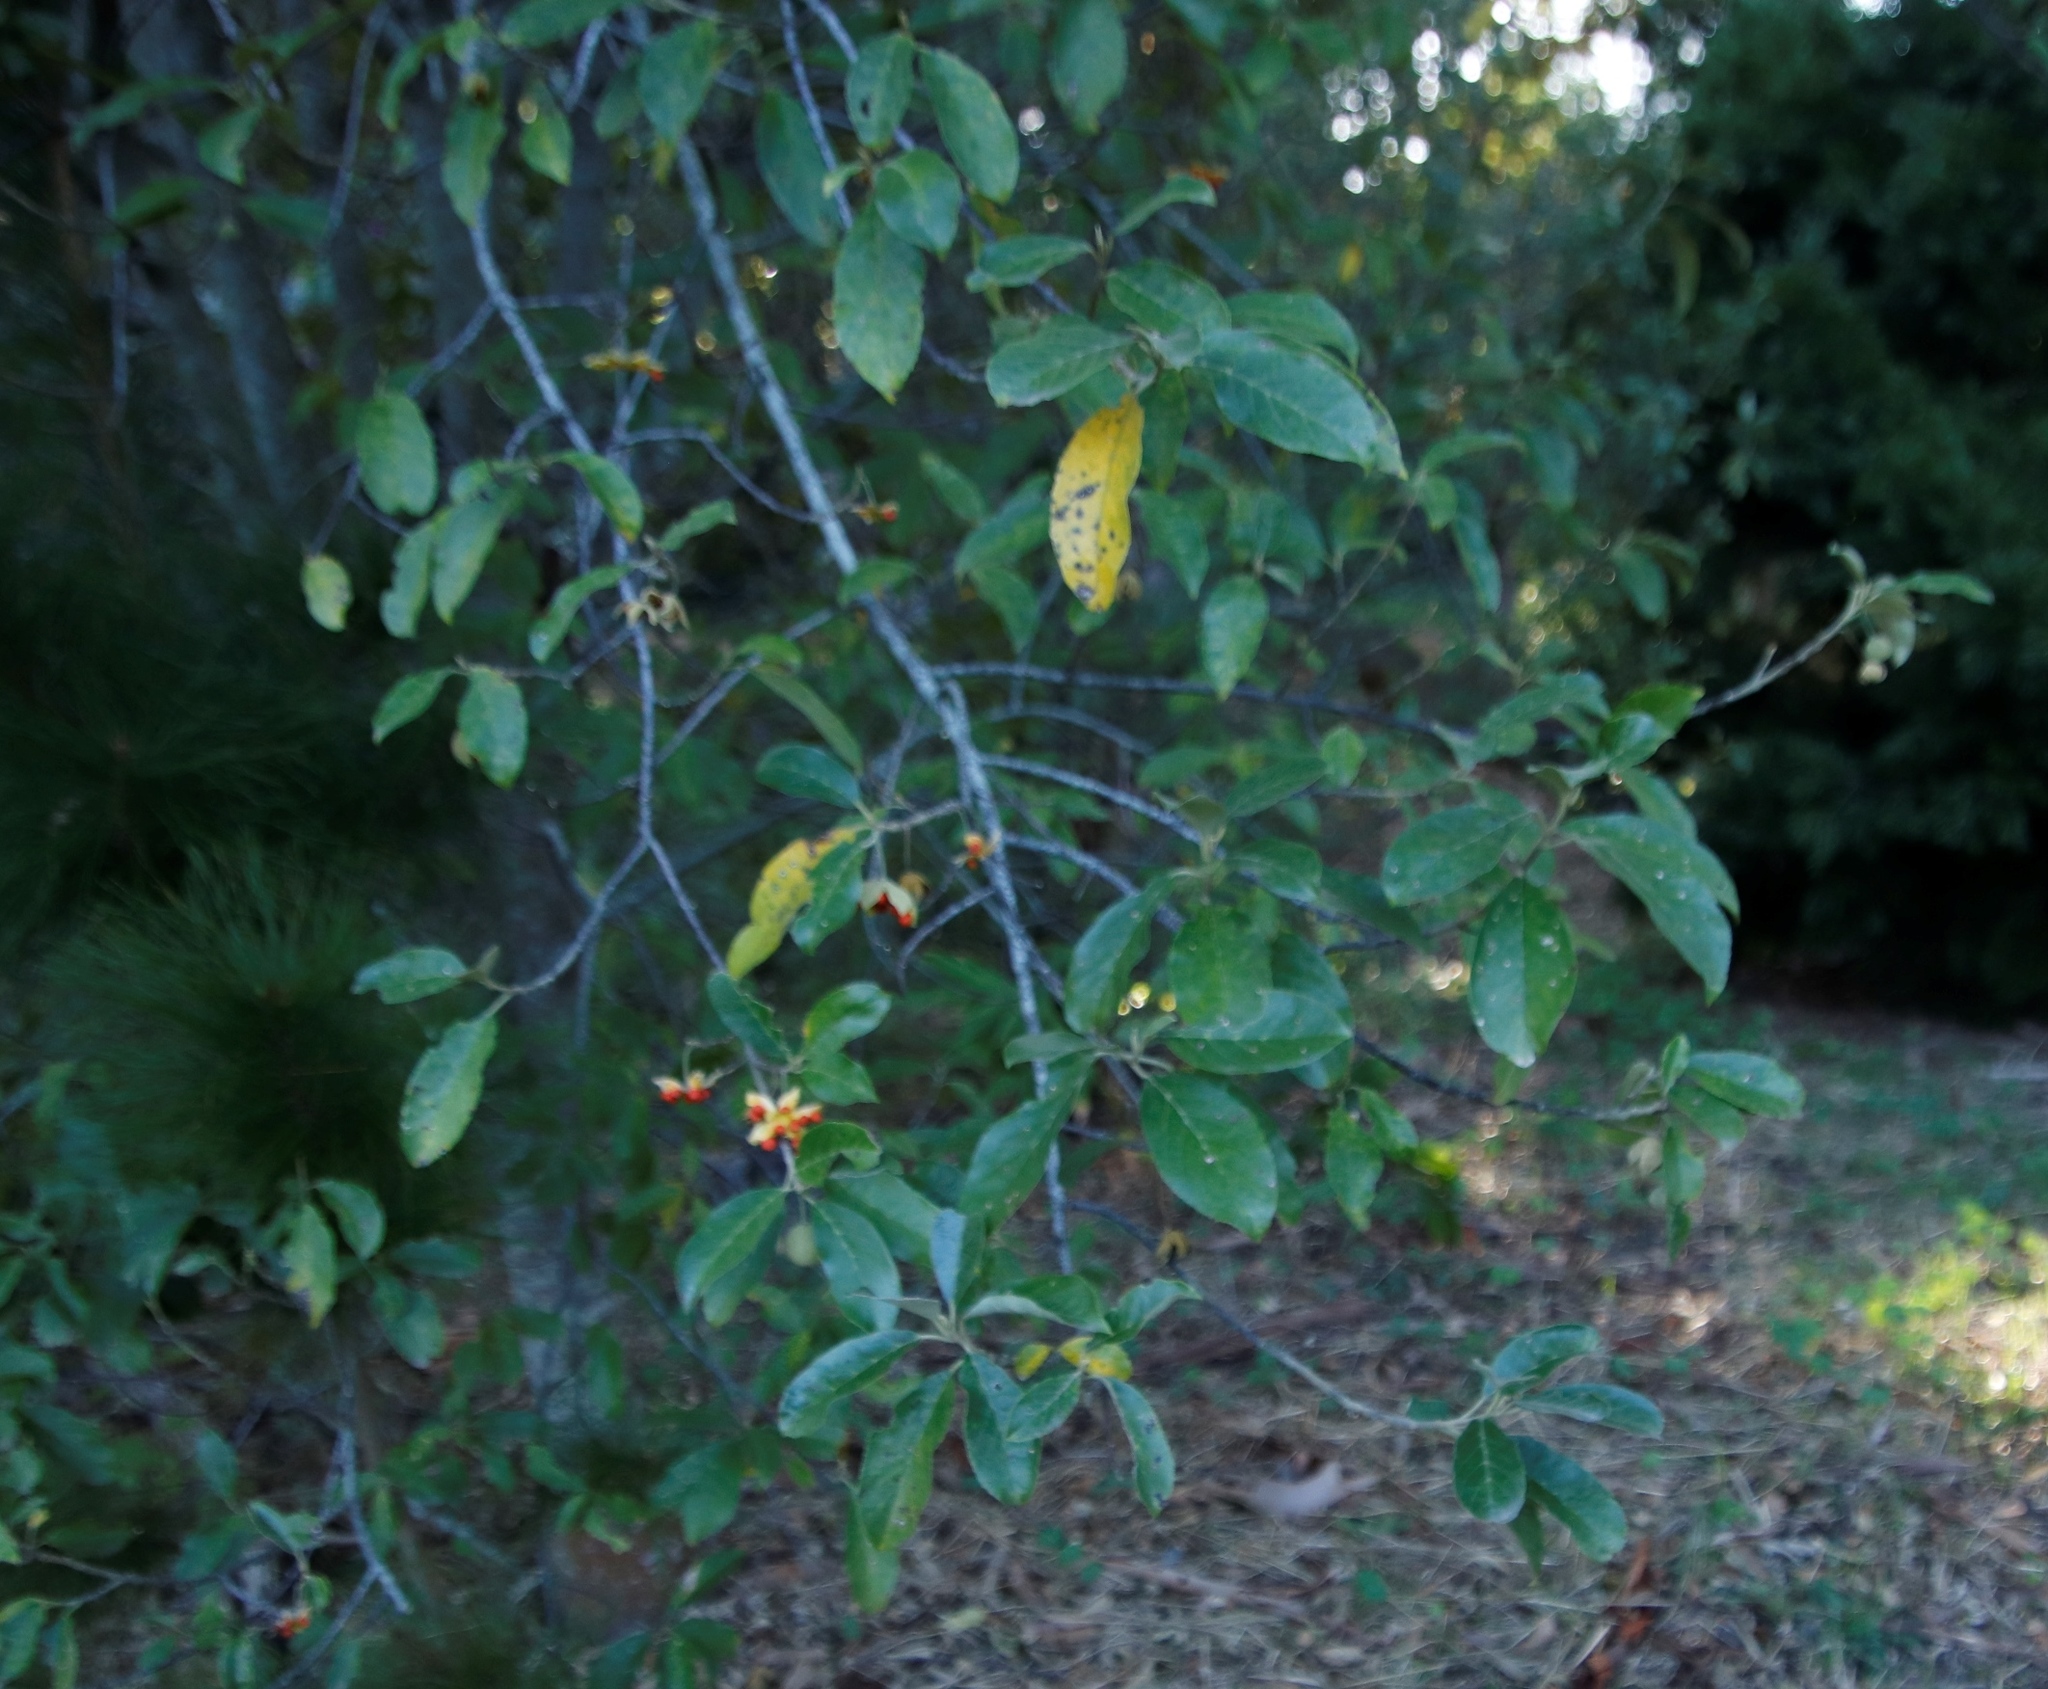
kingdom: Plantae
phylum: Tracheophyta
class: Magnoliopsida
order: Malpighiales
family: Achariaceae
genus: Kiggelaria
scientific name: Kiggelaria africana
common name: Wild peach
